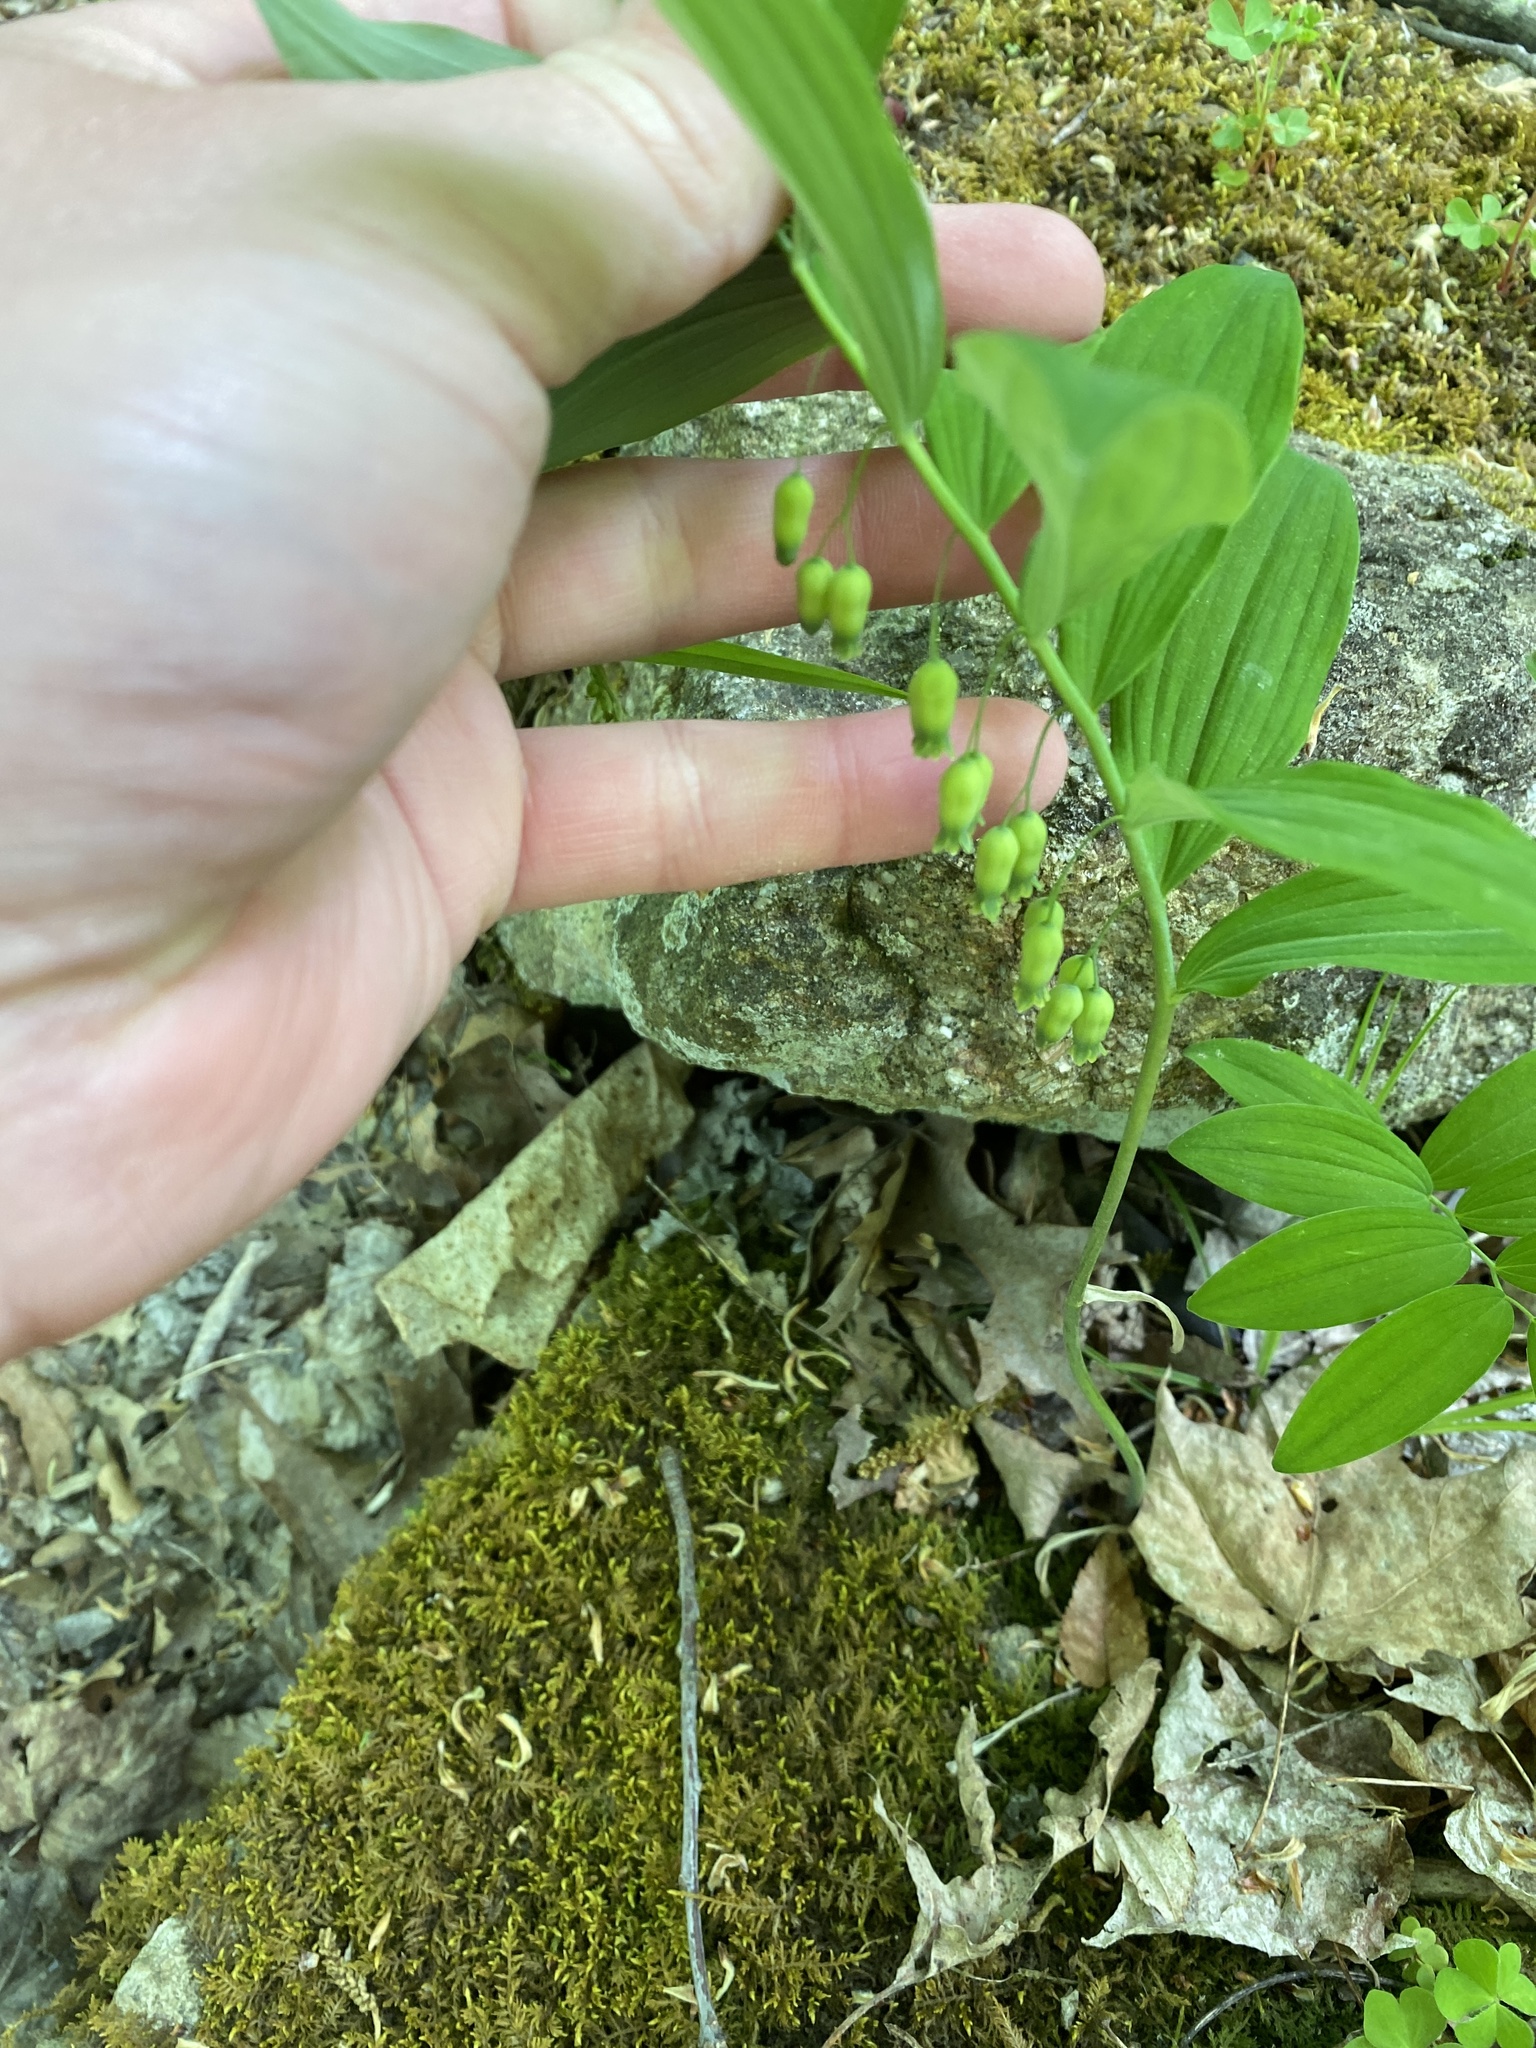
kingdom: Plantae
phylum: Tracheophyta
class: Liliopsida
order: Asparagales
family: Asparagaceae
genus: Polygonatum
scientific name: Polygonatum pubescens
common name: Downy solomon's seal
